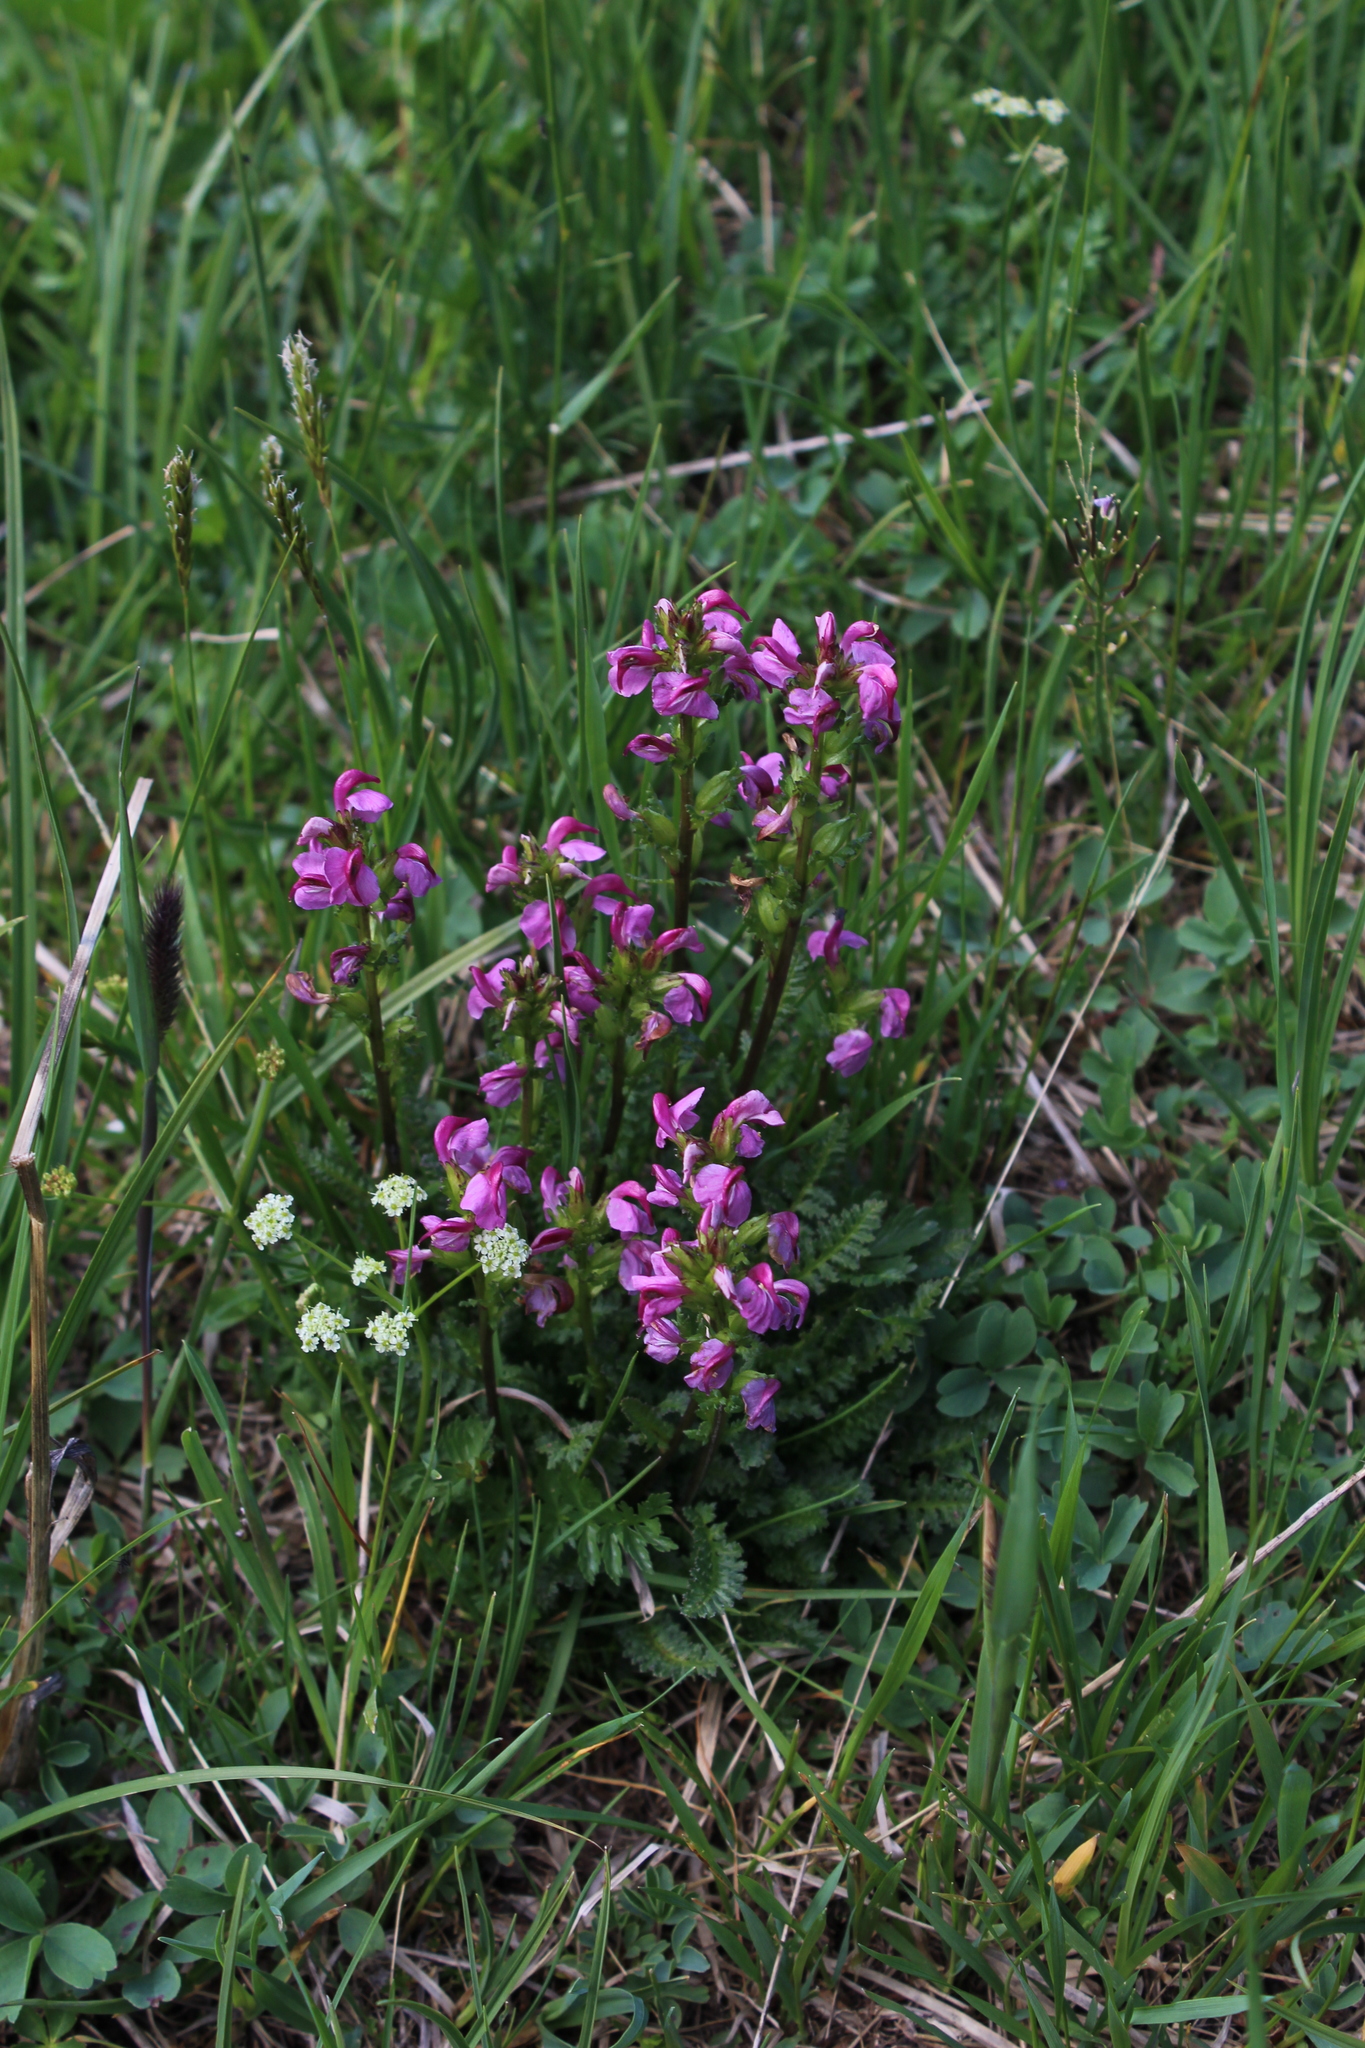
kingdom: Plantae
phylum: Tracheophyta
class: Magnoliopsida
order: Lamiales
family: Orobanchaceae
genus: Pedicularis
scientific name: Pedicularis nordmanniana
